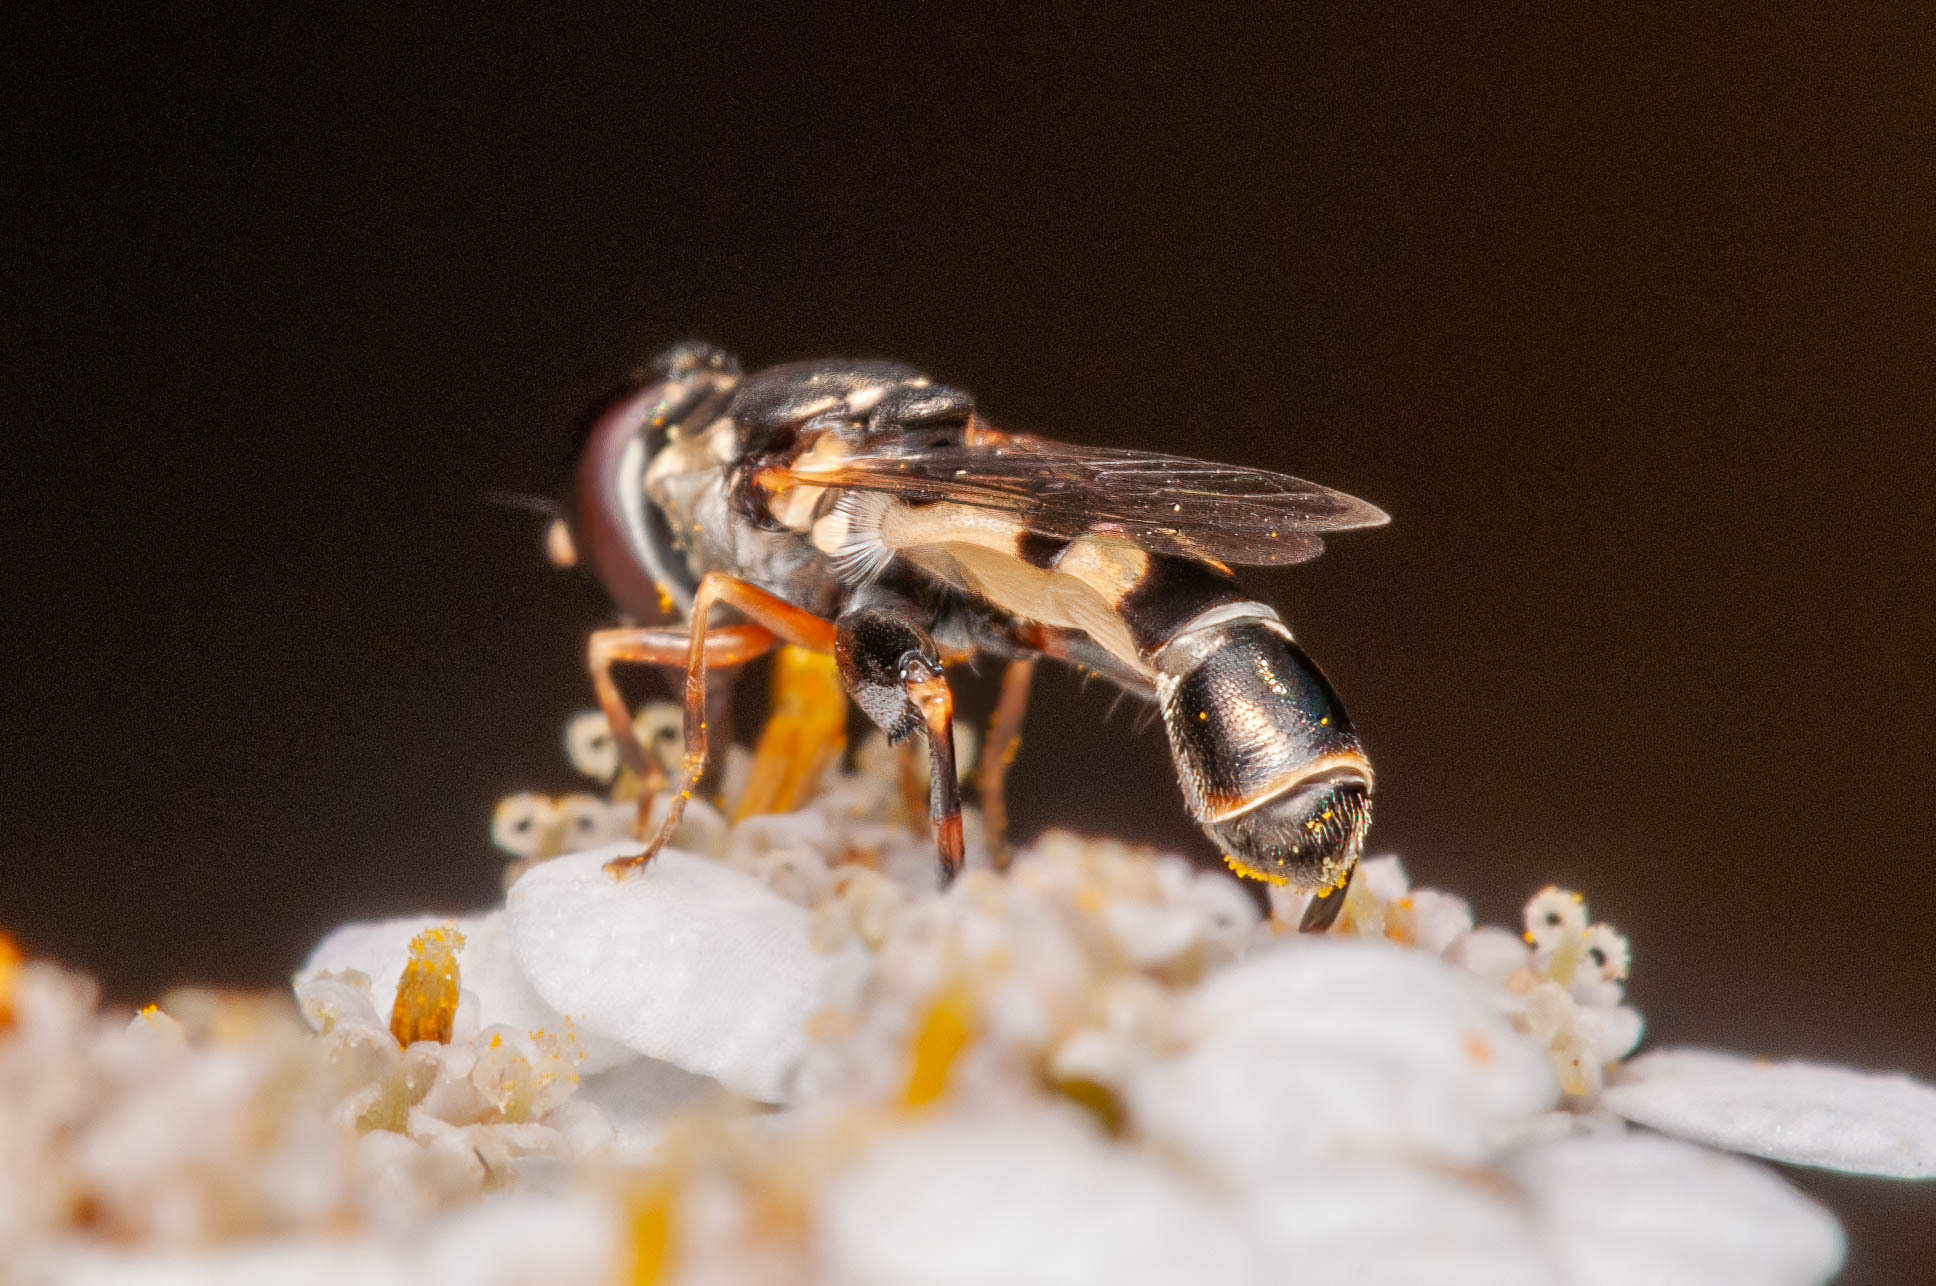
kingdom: Animalia
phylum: Arthropoda
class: Insecta
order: Diptera
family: Syrphidae
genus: Syritta
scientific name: Syritta pipiens
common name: Hover fly
